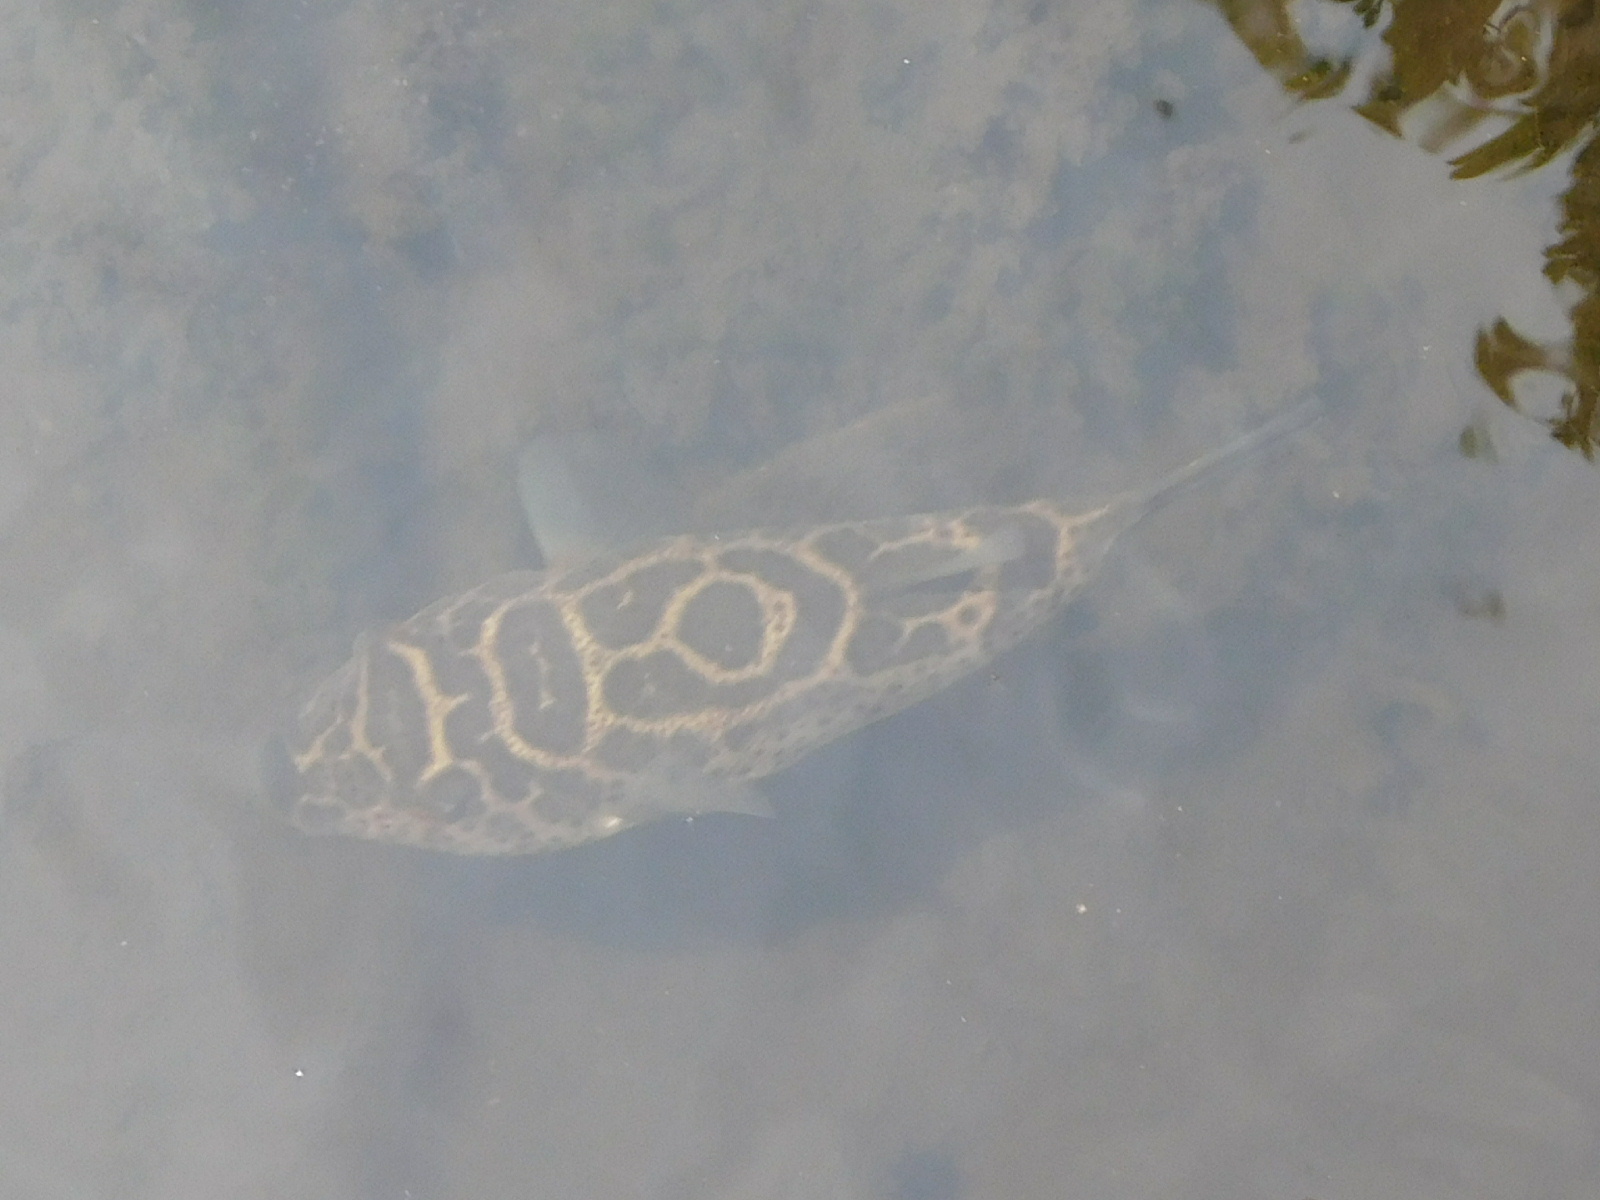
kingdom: Animalia
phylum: Chordata
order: Tetraodontiformes
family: Tetraodontidae
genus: Sphoeroides
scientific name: Sphoeroides testudineus
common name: Checkered puffer
